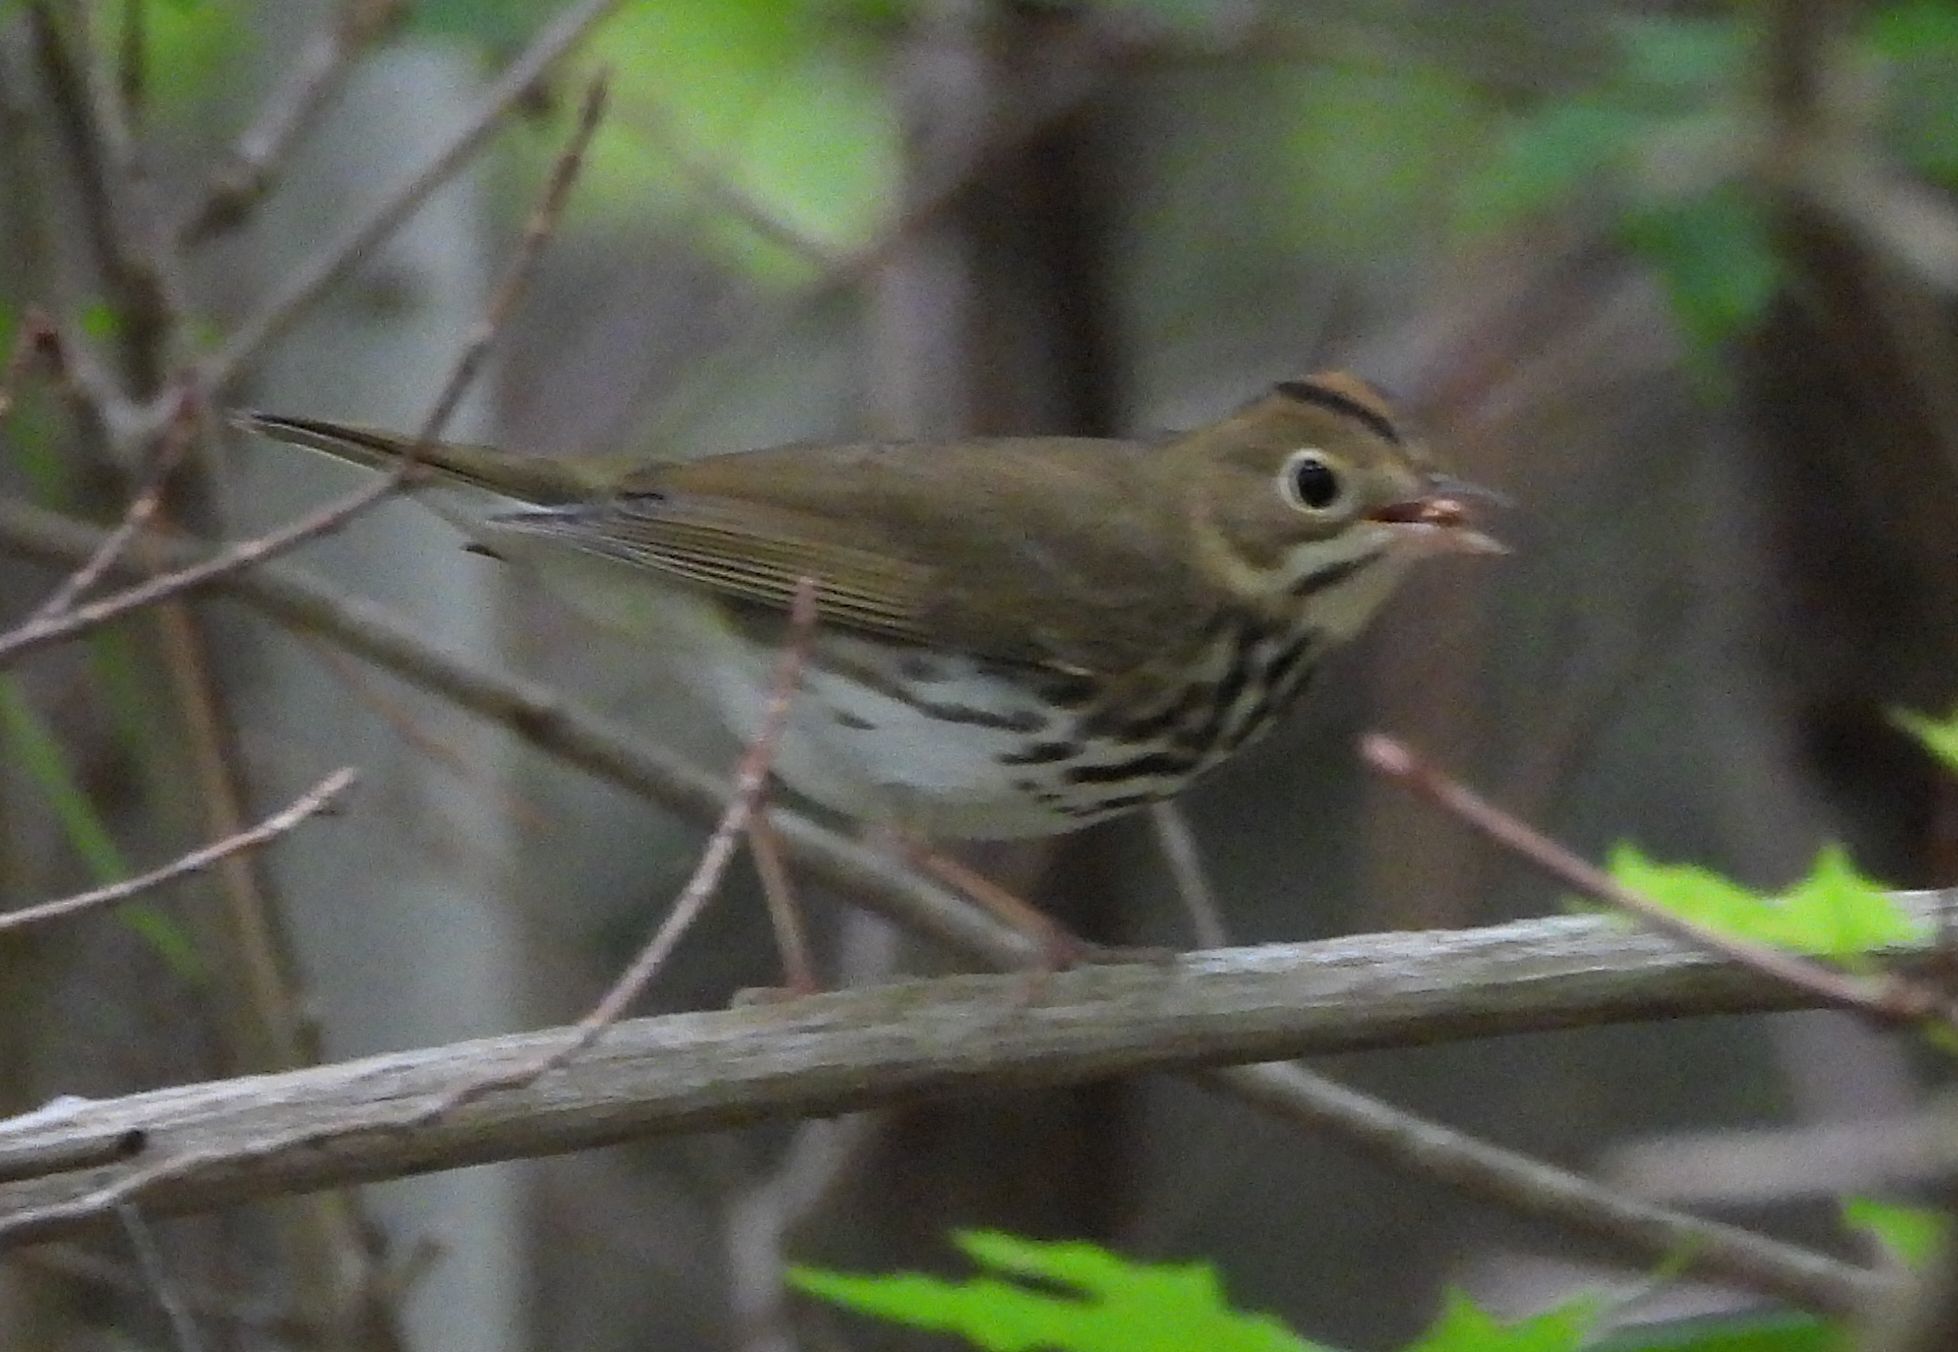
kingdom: Animalia
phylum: Chordata
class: Aves
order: Passeriformes
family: Parulidae
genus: Seiurus
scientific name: Seiurus aurocapilla
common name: Ovenbird
